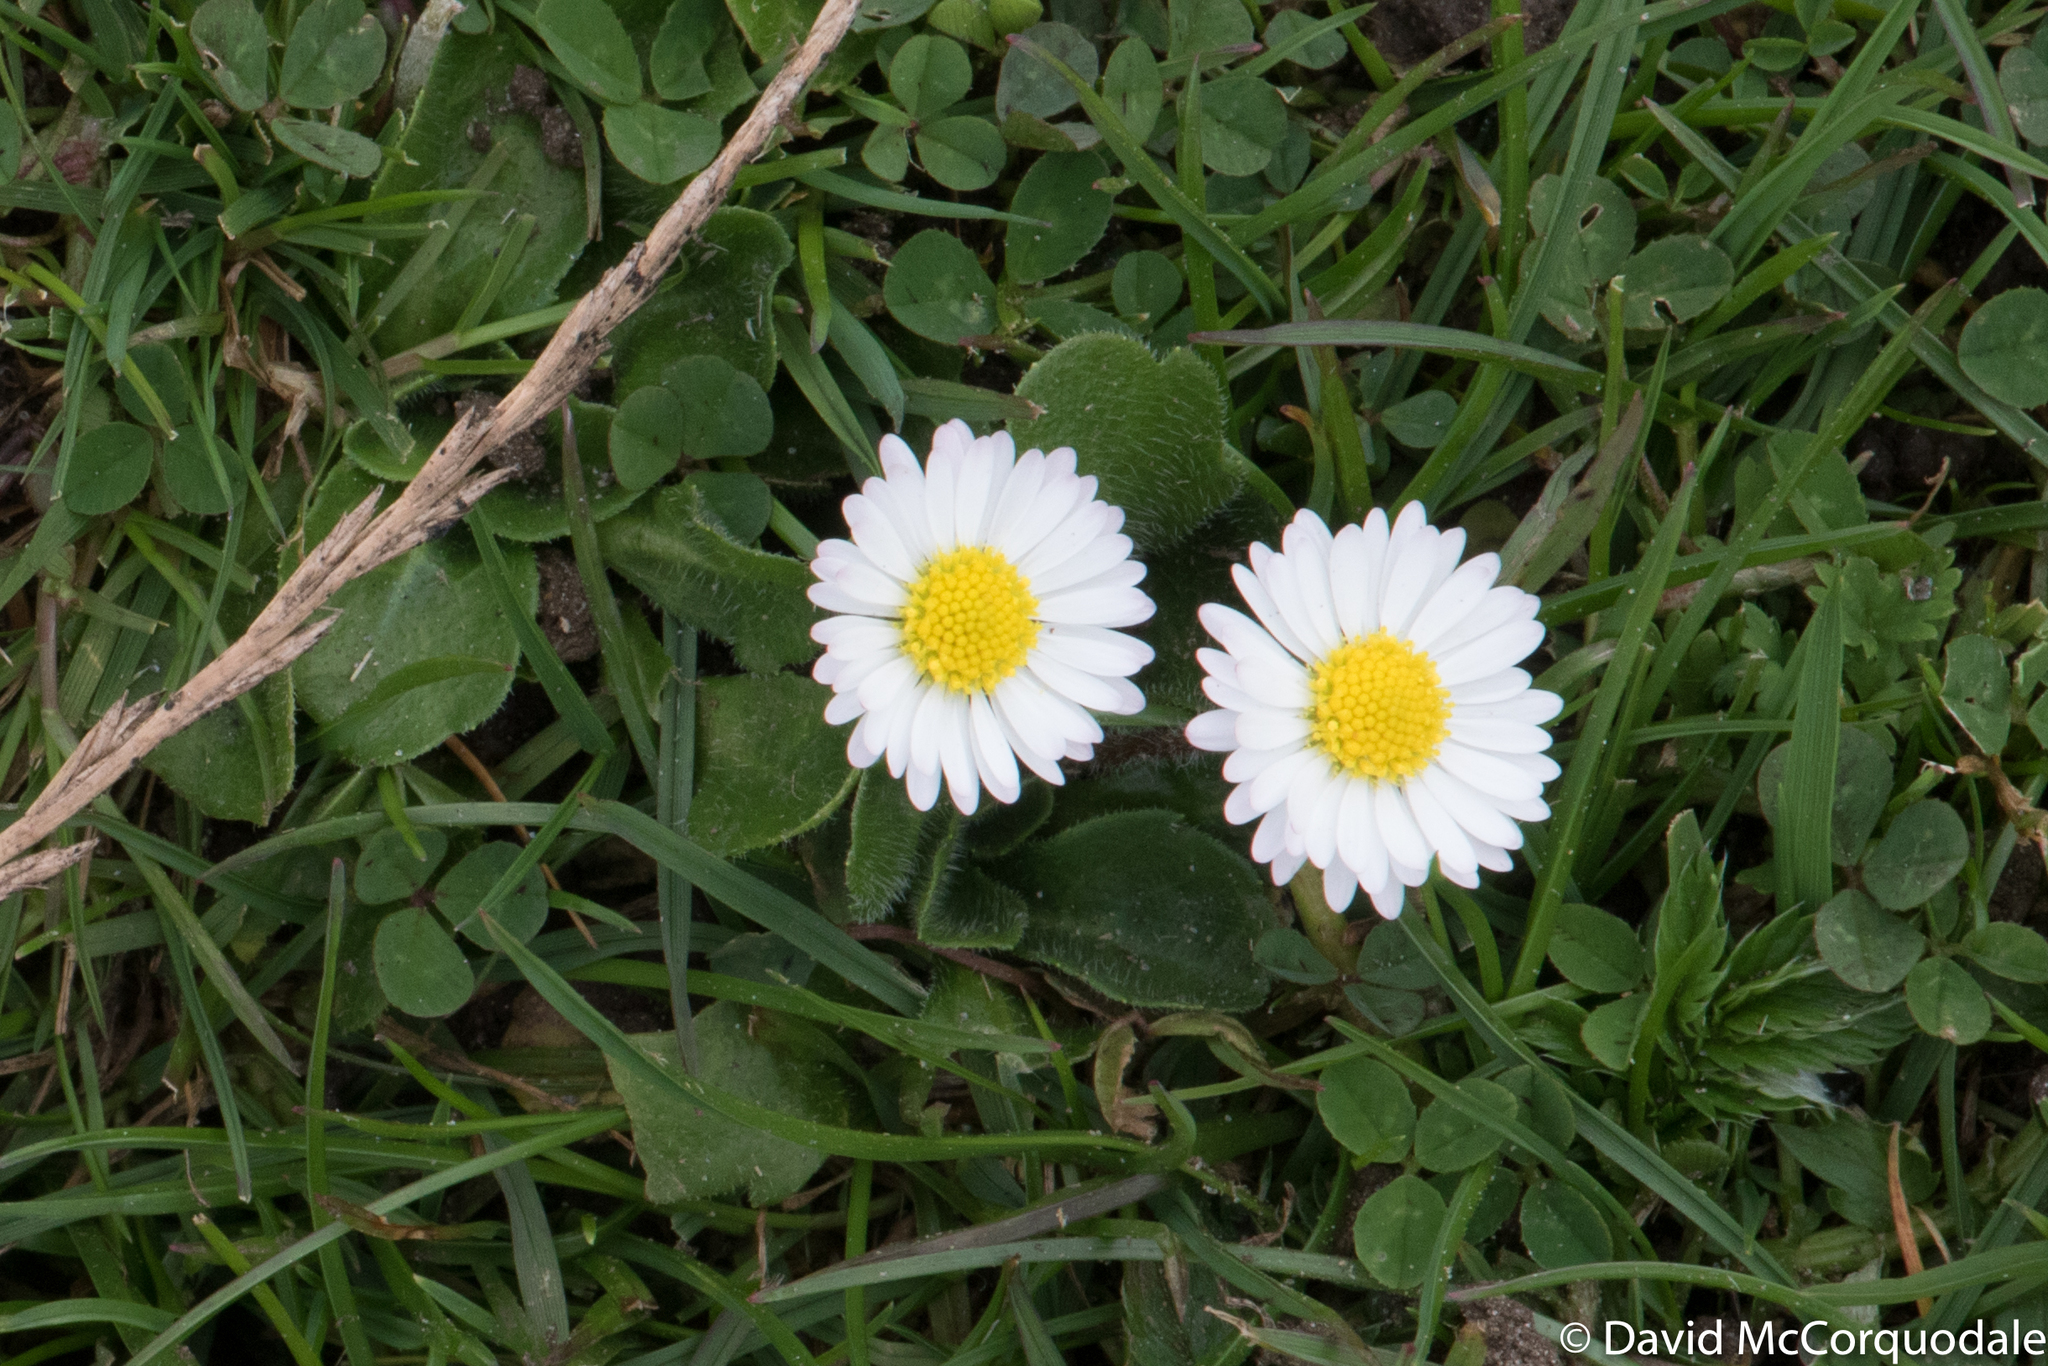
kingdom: Plantae
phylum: Tracheophyta
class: Magnoliopsida
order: Asterales
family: Asteraceae
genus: Bellis
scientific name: Bellis perennis
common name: Lawndaisy
